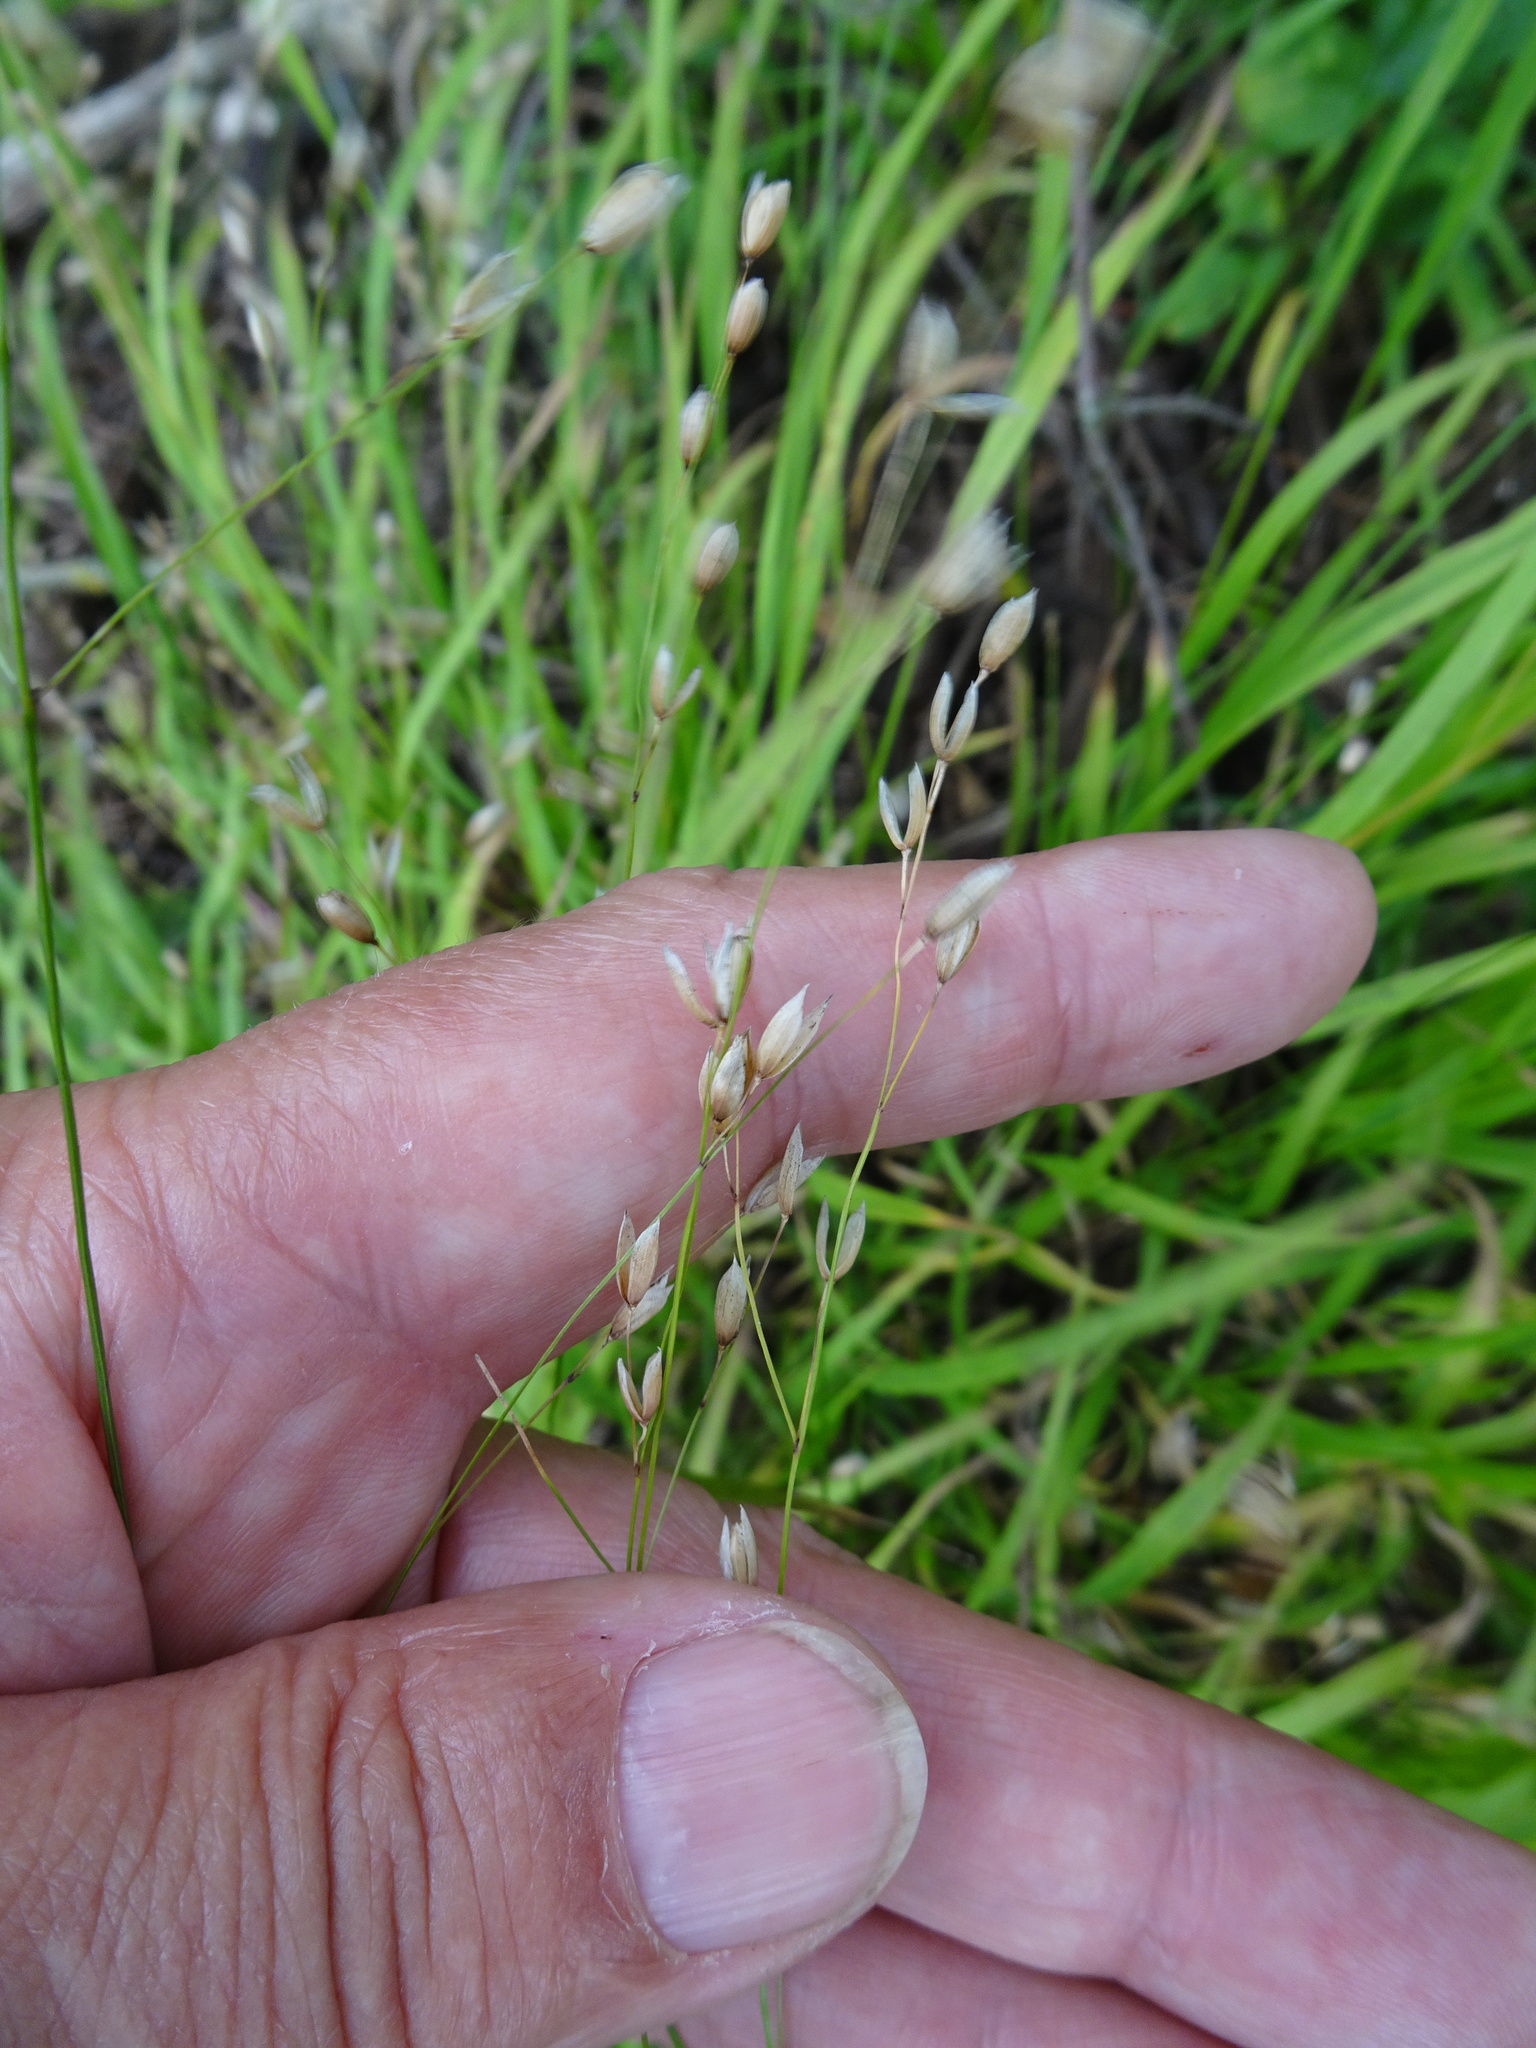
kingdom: Plantae
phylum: Tracheophyta
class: Liliopsida
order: Poales
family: Poaceae
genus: Melica
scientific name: Melica uniflora
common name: Wood melick
